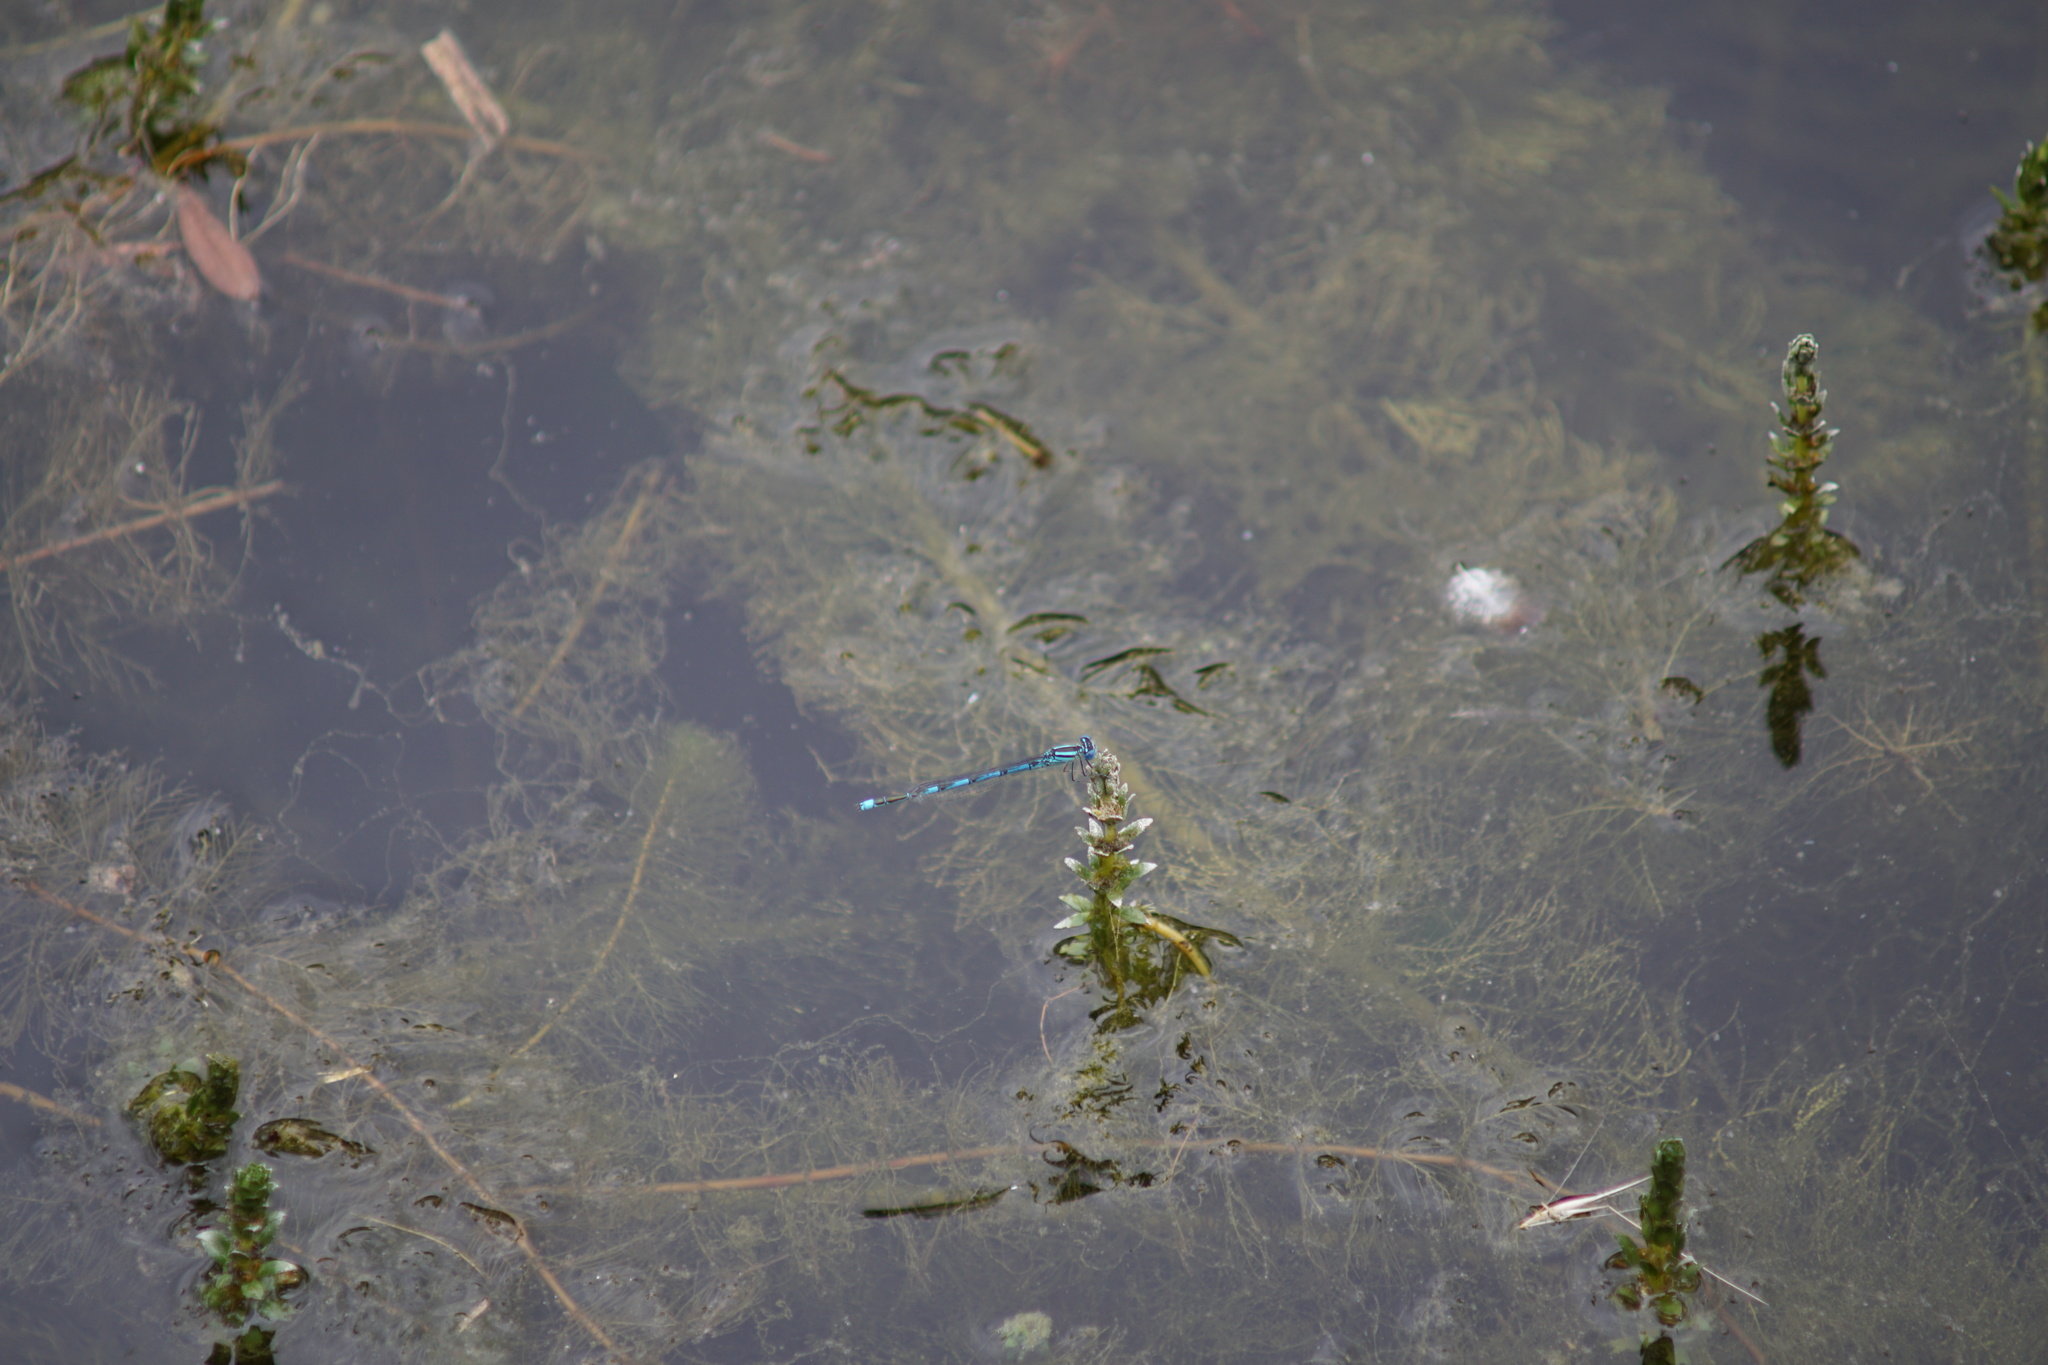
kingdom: Animalia
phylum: Arthropoda
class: Insecta
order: Odonata
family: Coenagrionidae
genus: Erythromma
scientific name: Erythromma lindenii
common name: Blue-eye
